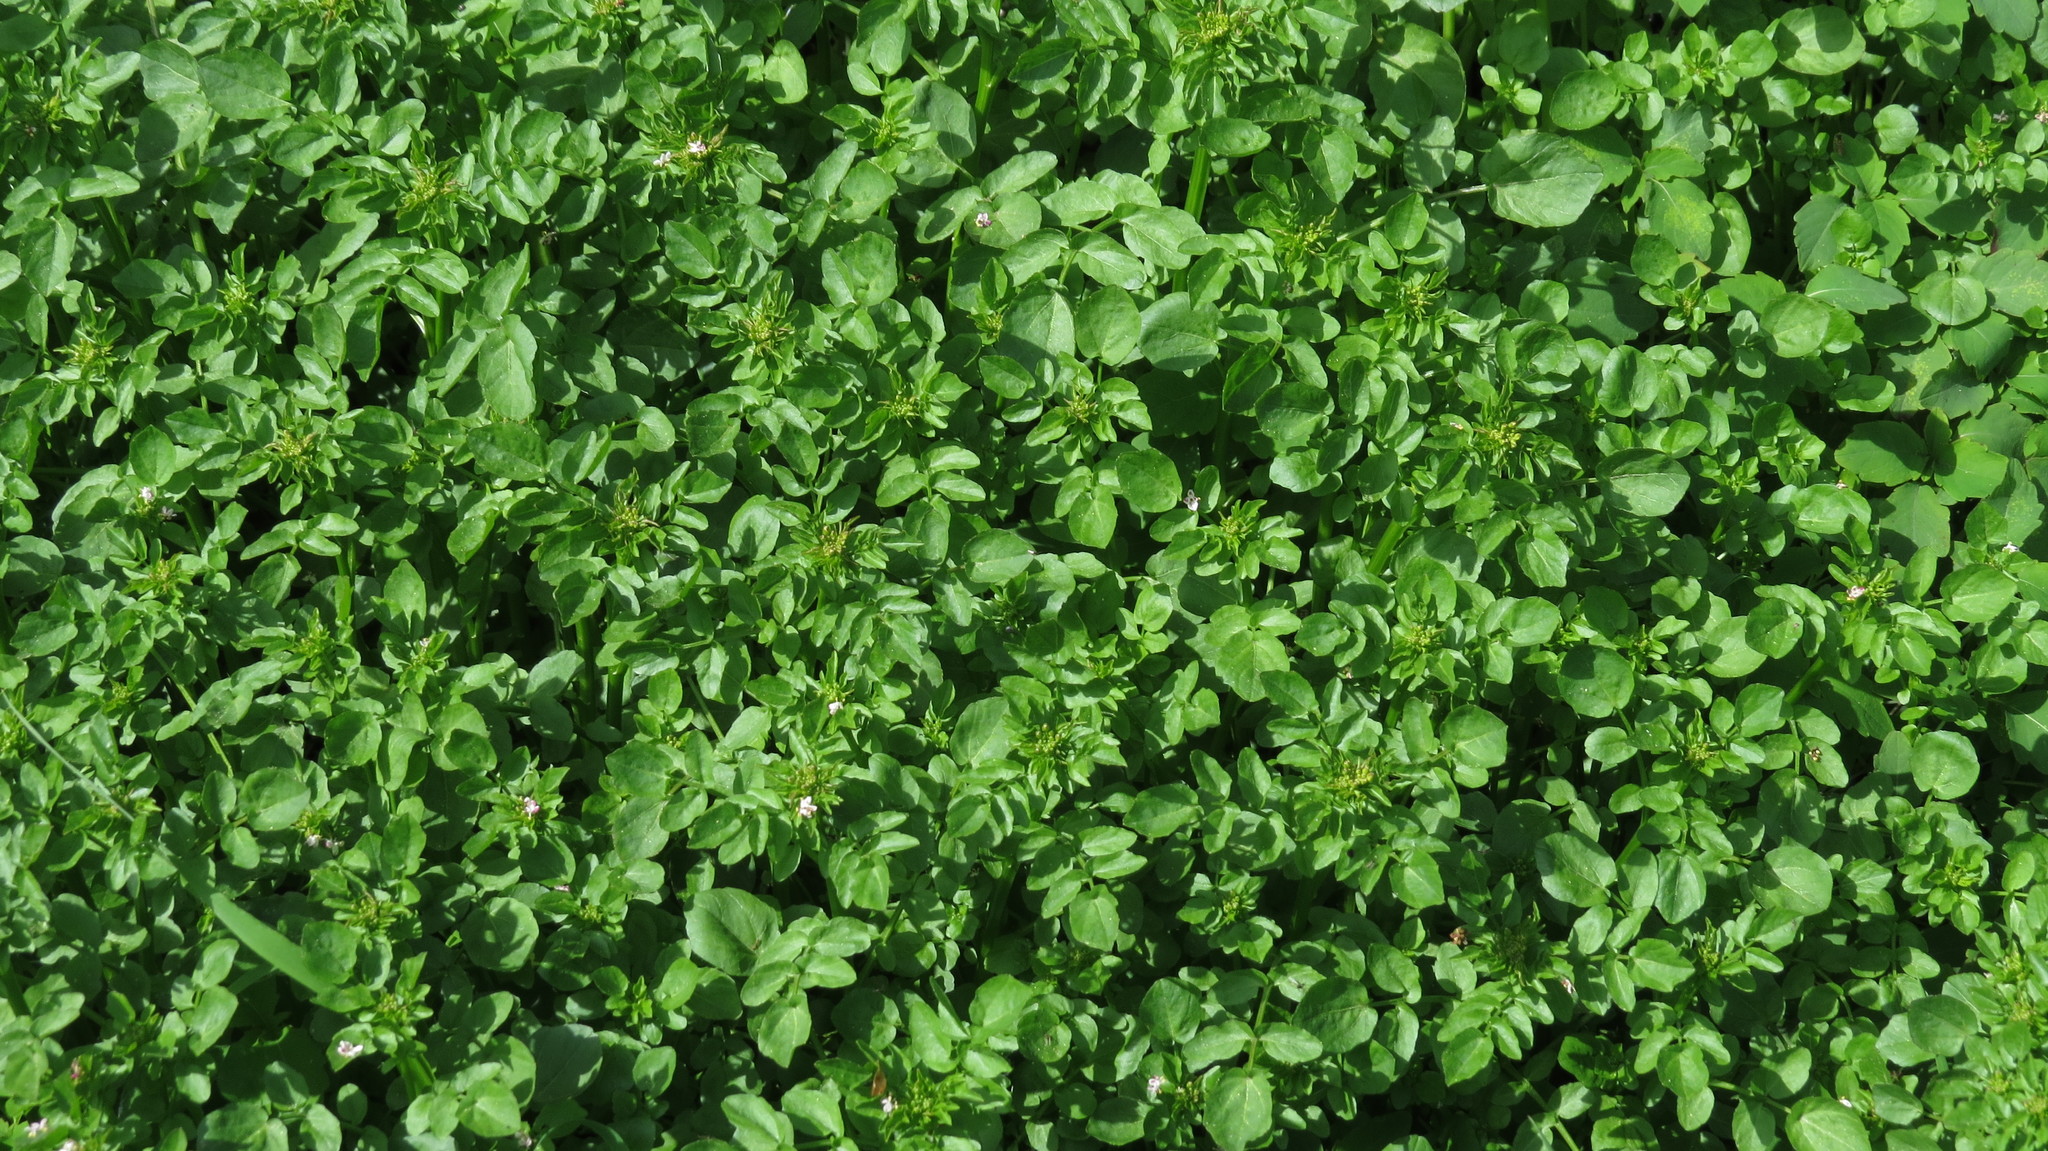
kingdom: Plantae
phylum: Tracheophyta
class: Magnoliopsida
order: Brassicales
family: Brassicaceae
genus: Nasturtium
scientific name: Nasturtium officinale
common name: Watercress
